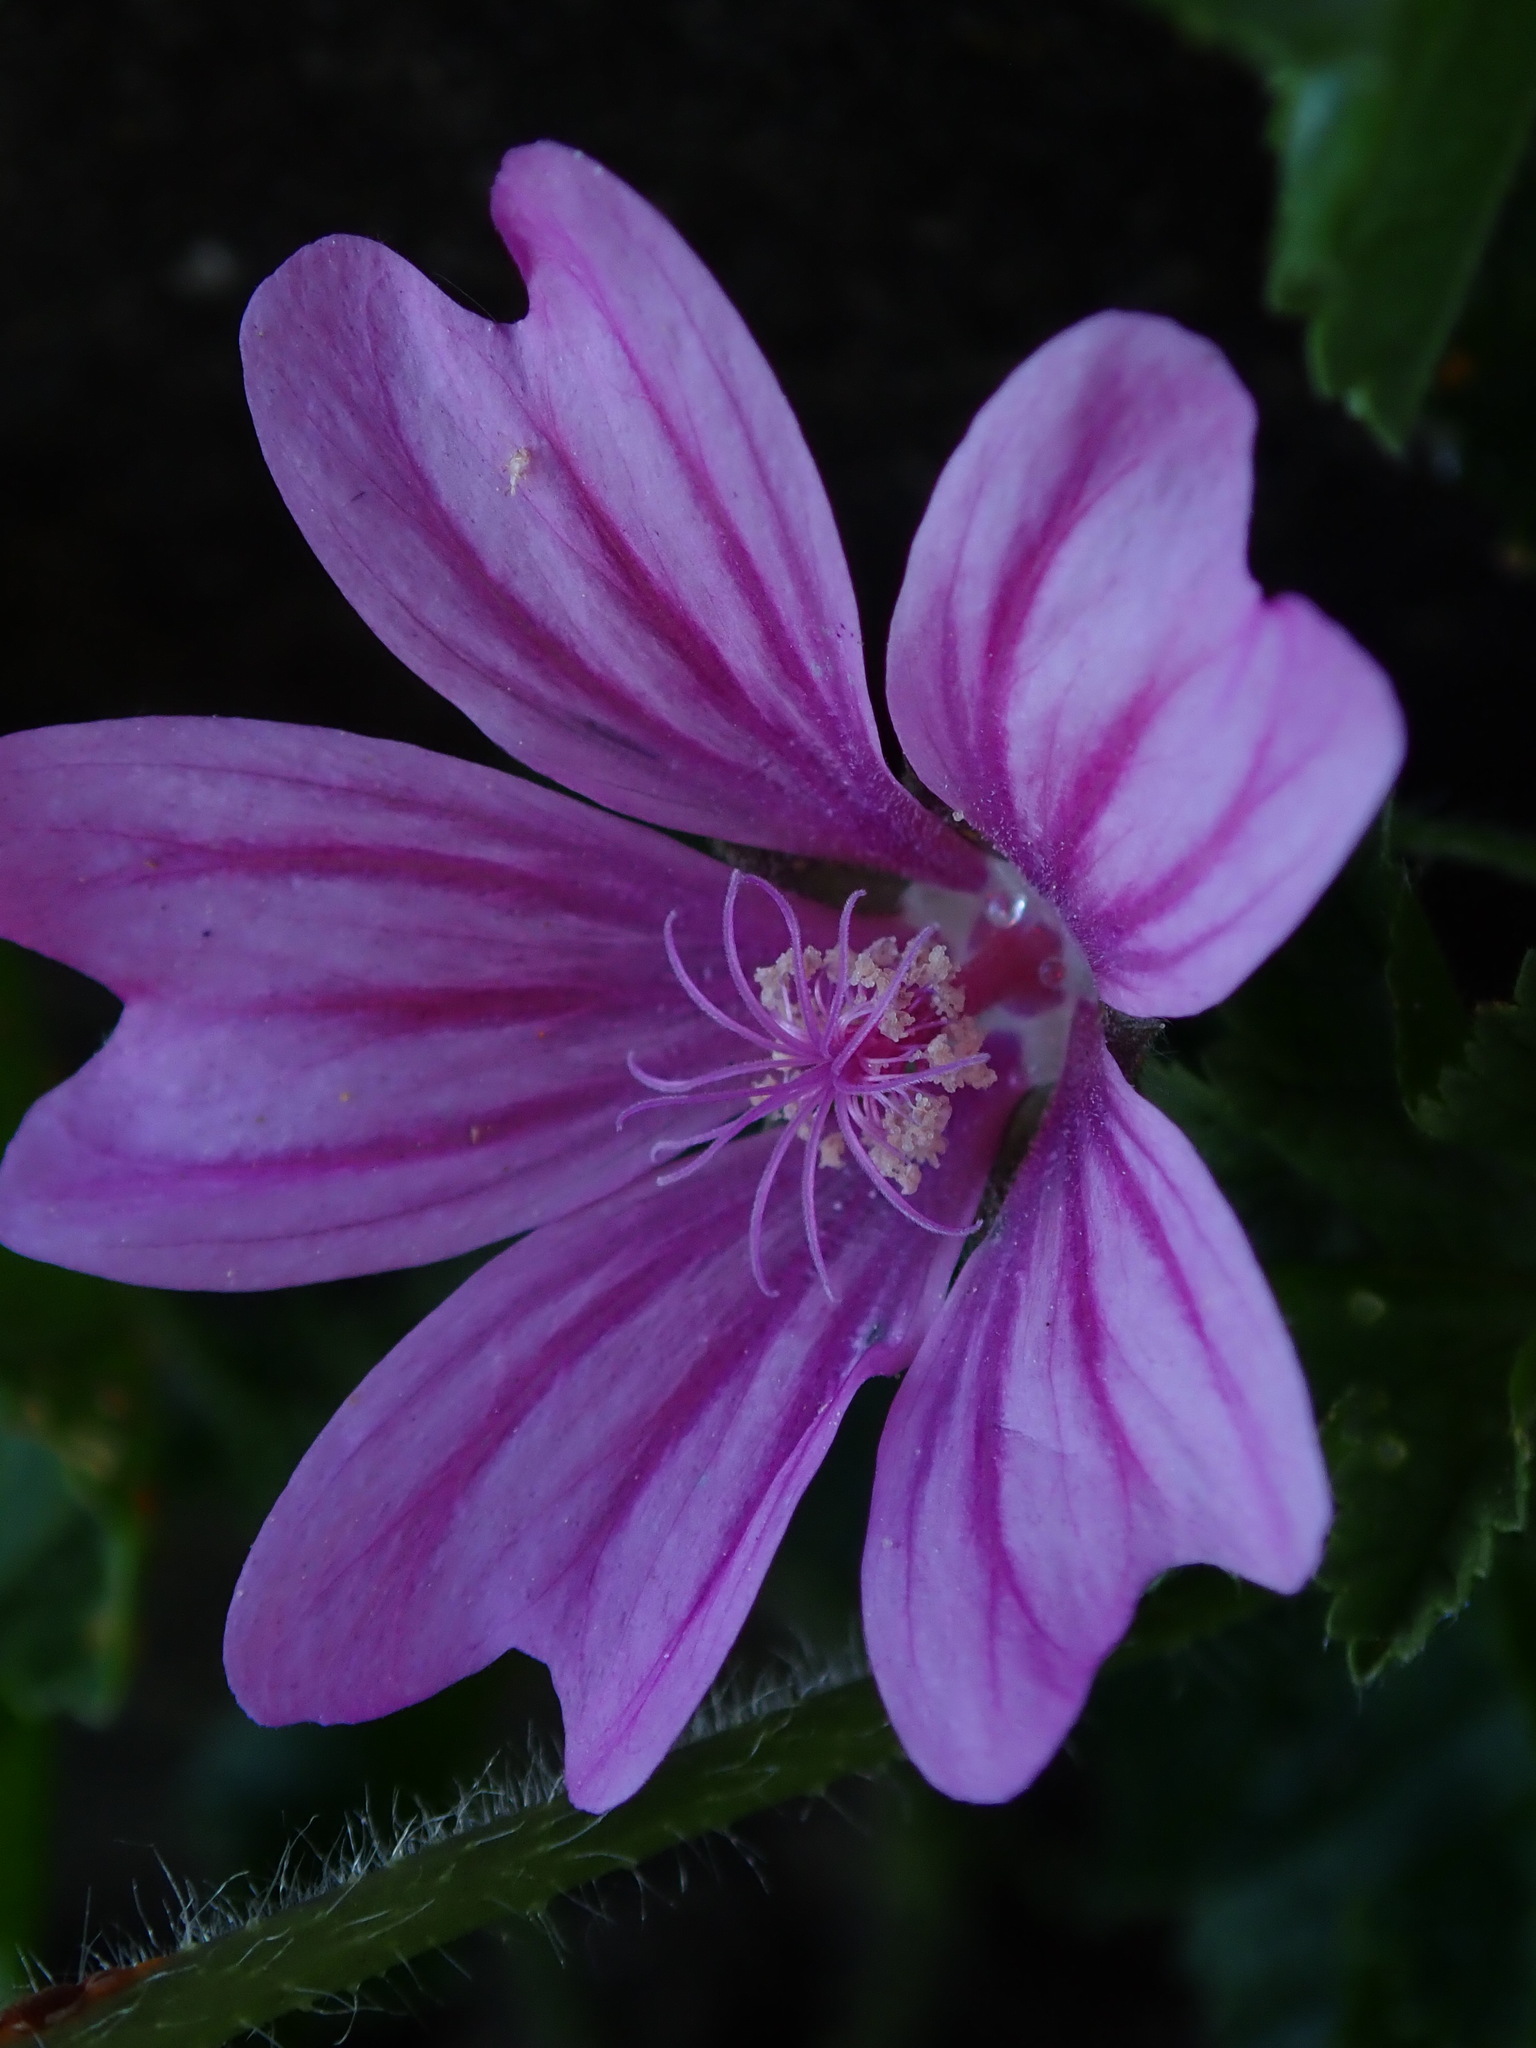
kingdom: Plantae
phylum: Tracheophyta
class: Magnoliopsida
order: Malvales
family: Malvaceae
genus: Malva
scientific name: Malva sylvestris
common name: Common mallow
